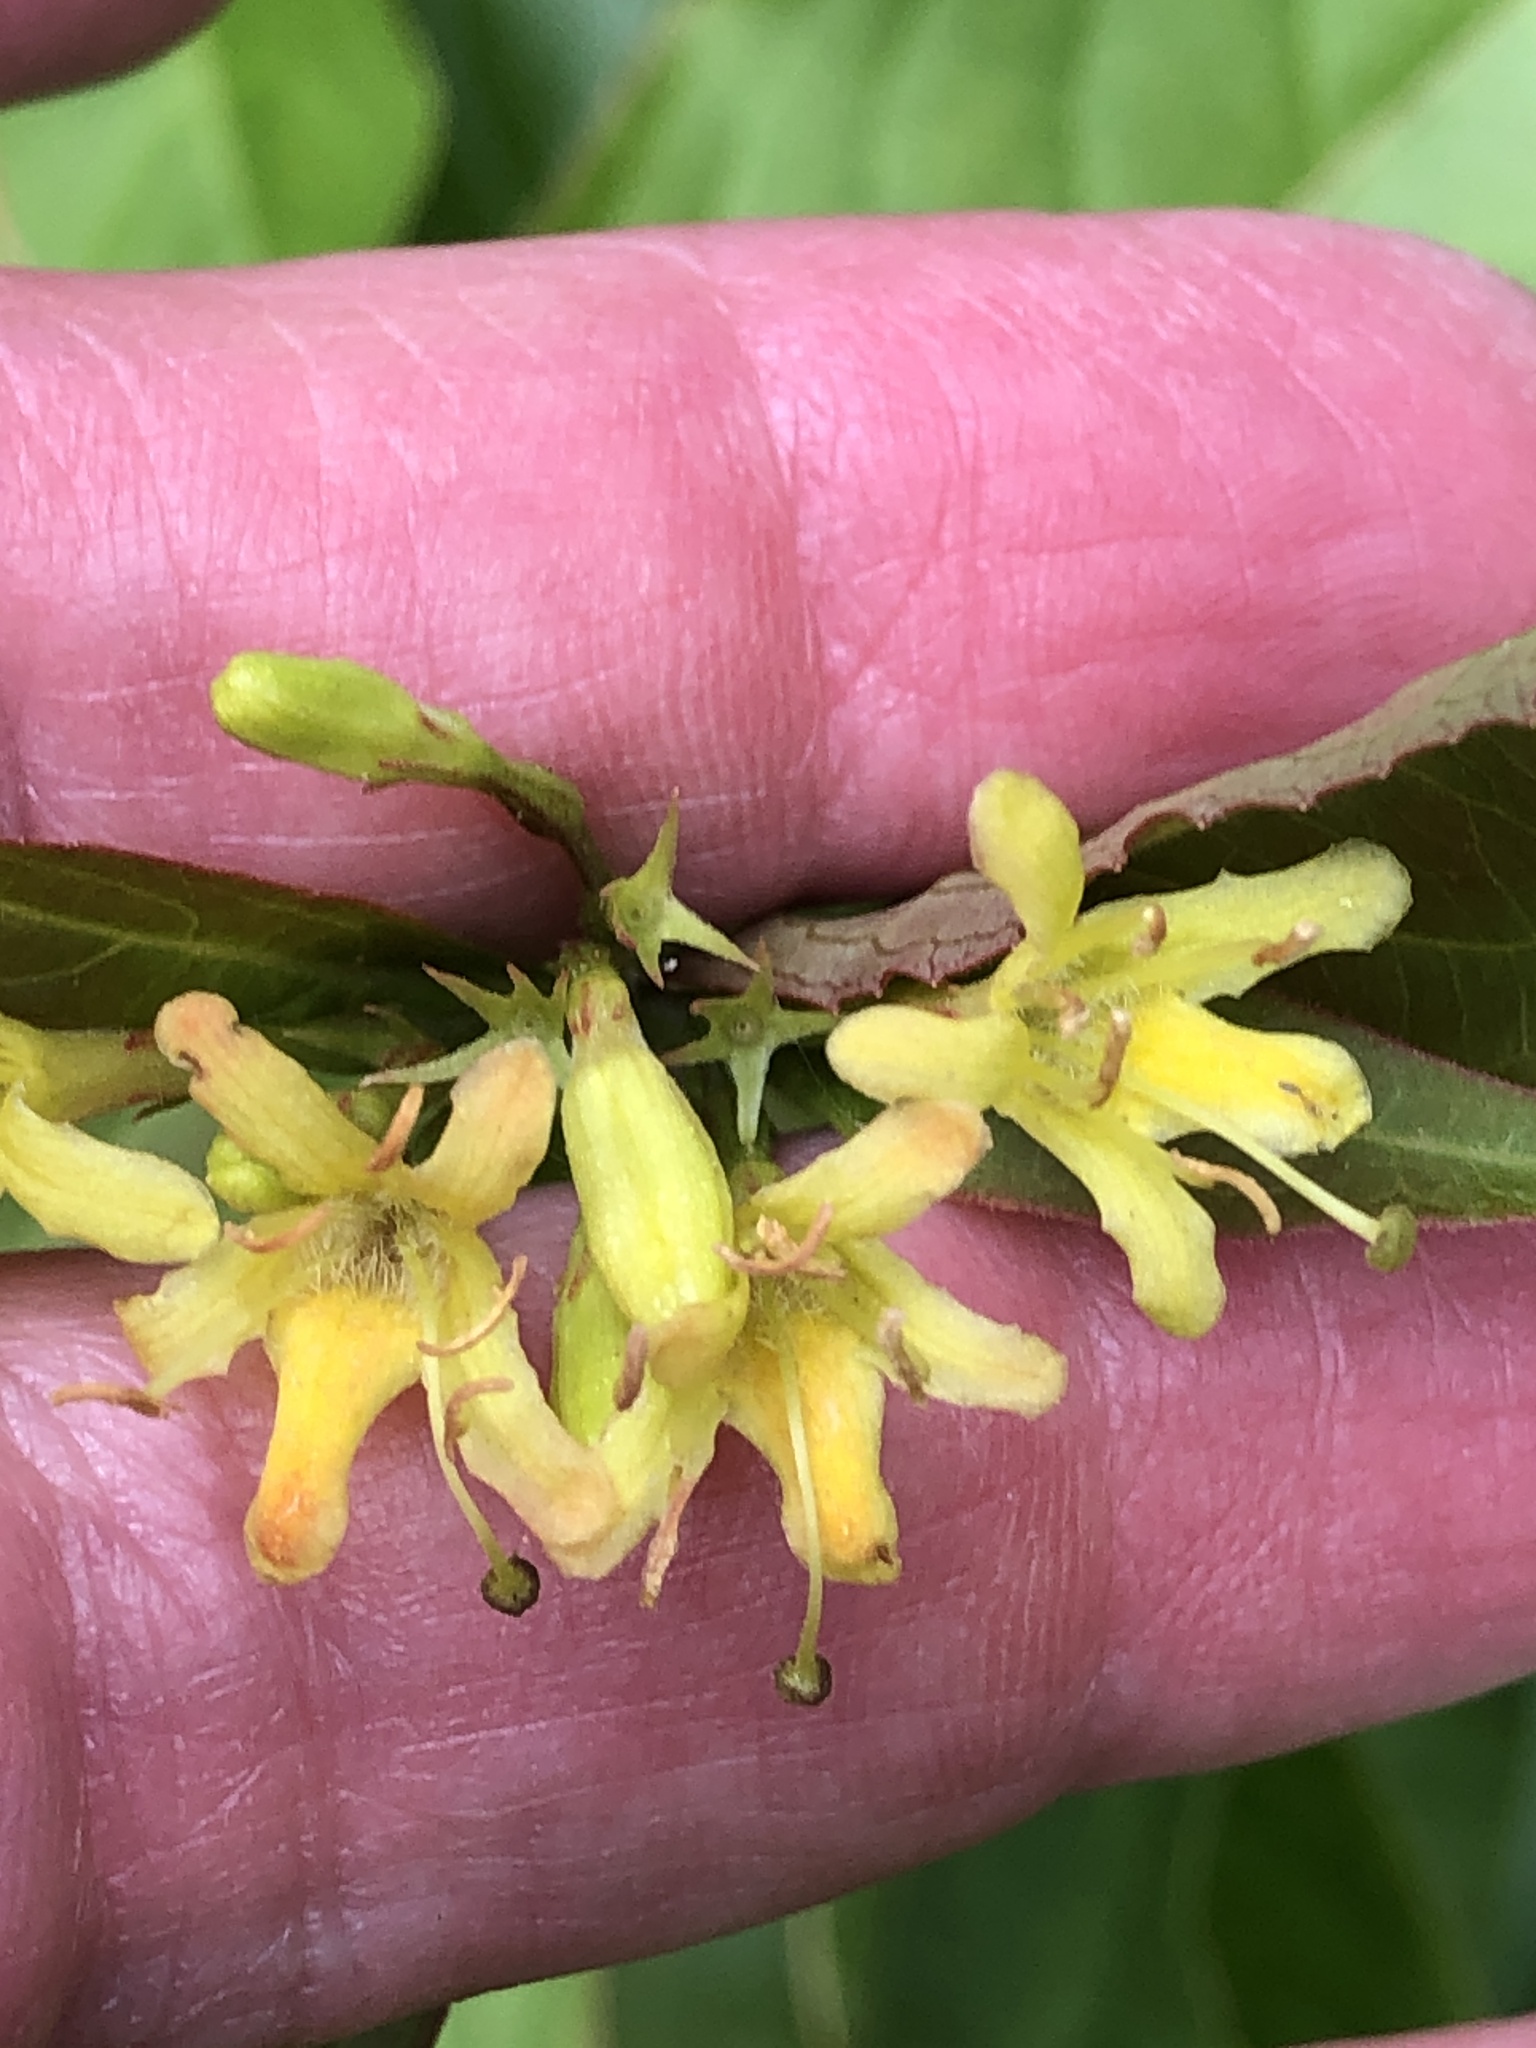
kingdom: Plantae
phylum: Tracheophyta
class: Magnoliopsida
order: Dipsacales
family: Caprifoliaceae
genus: Diervilla
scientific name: Diervilla lonicera
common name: Bush-honeysuckle
